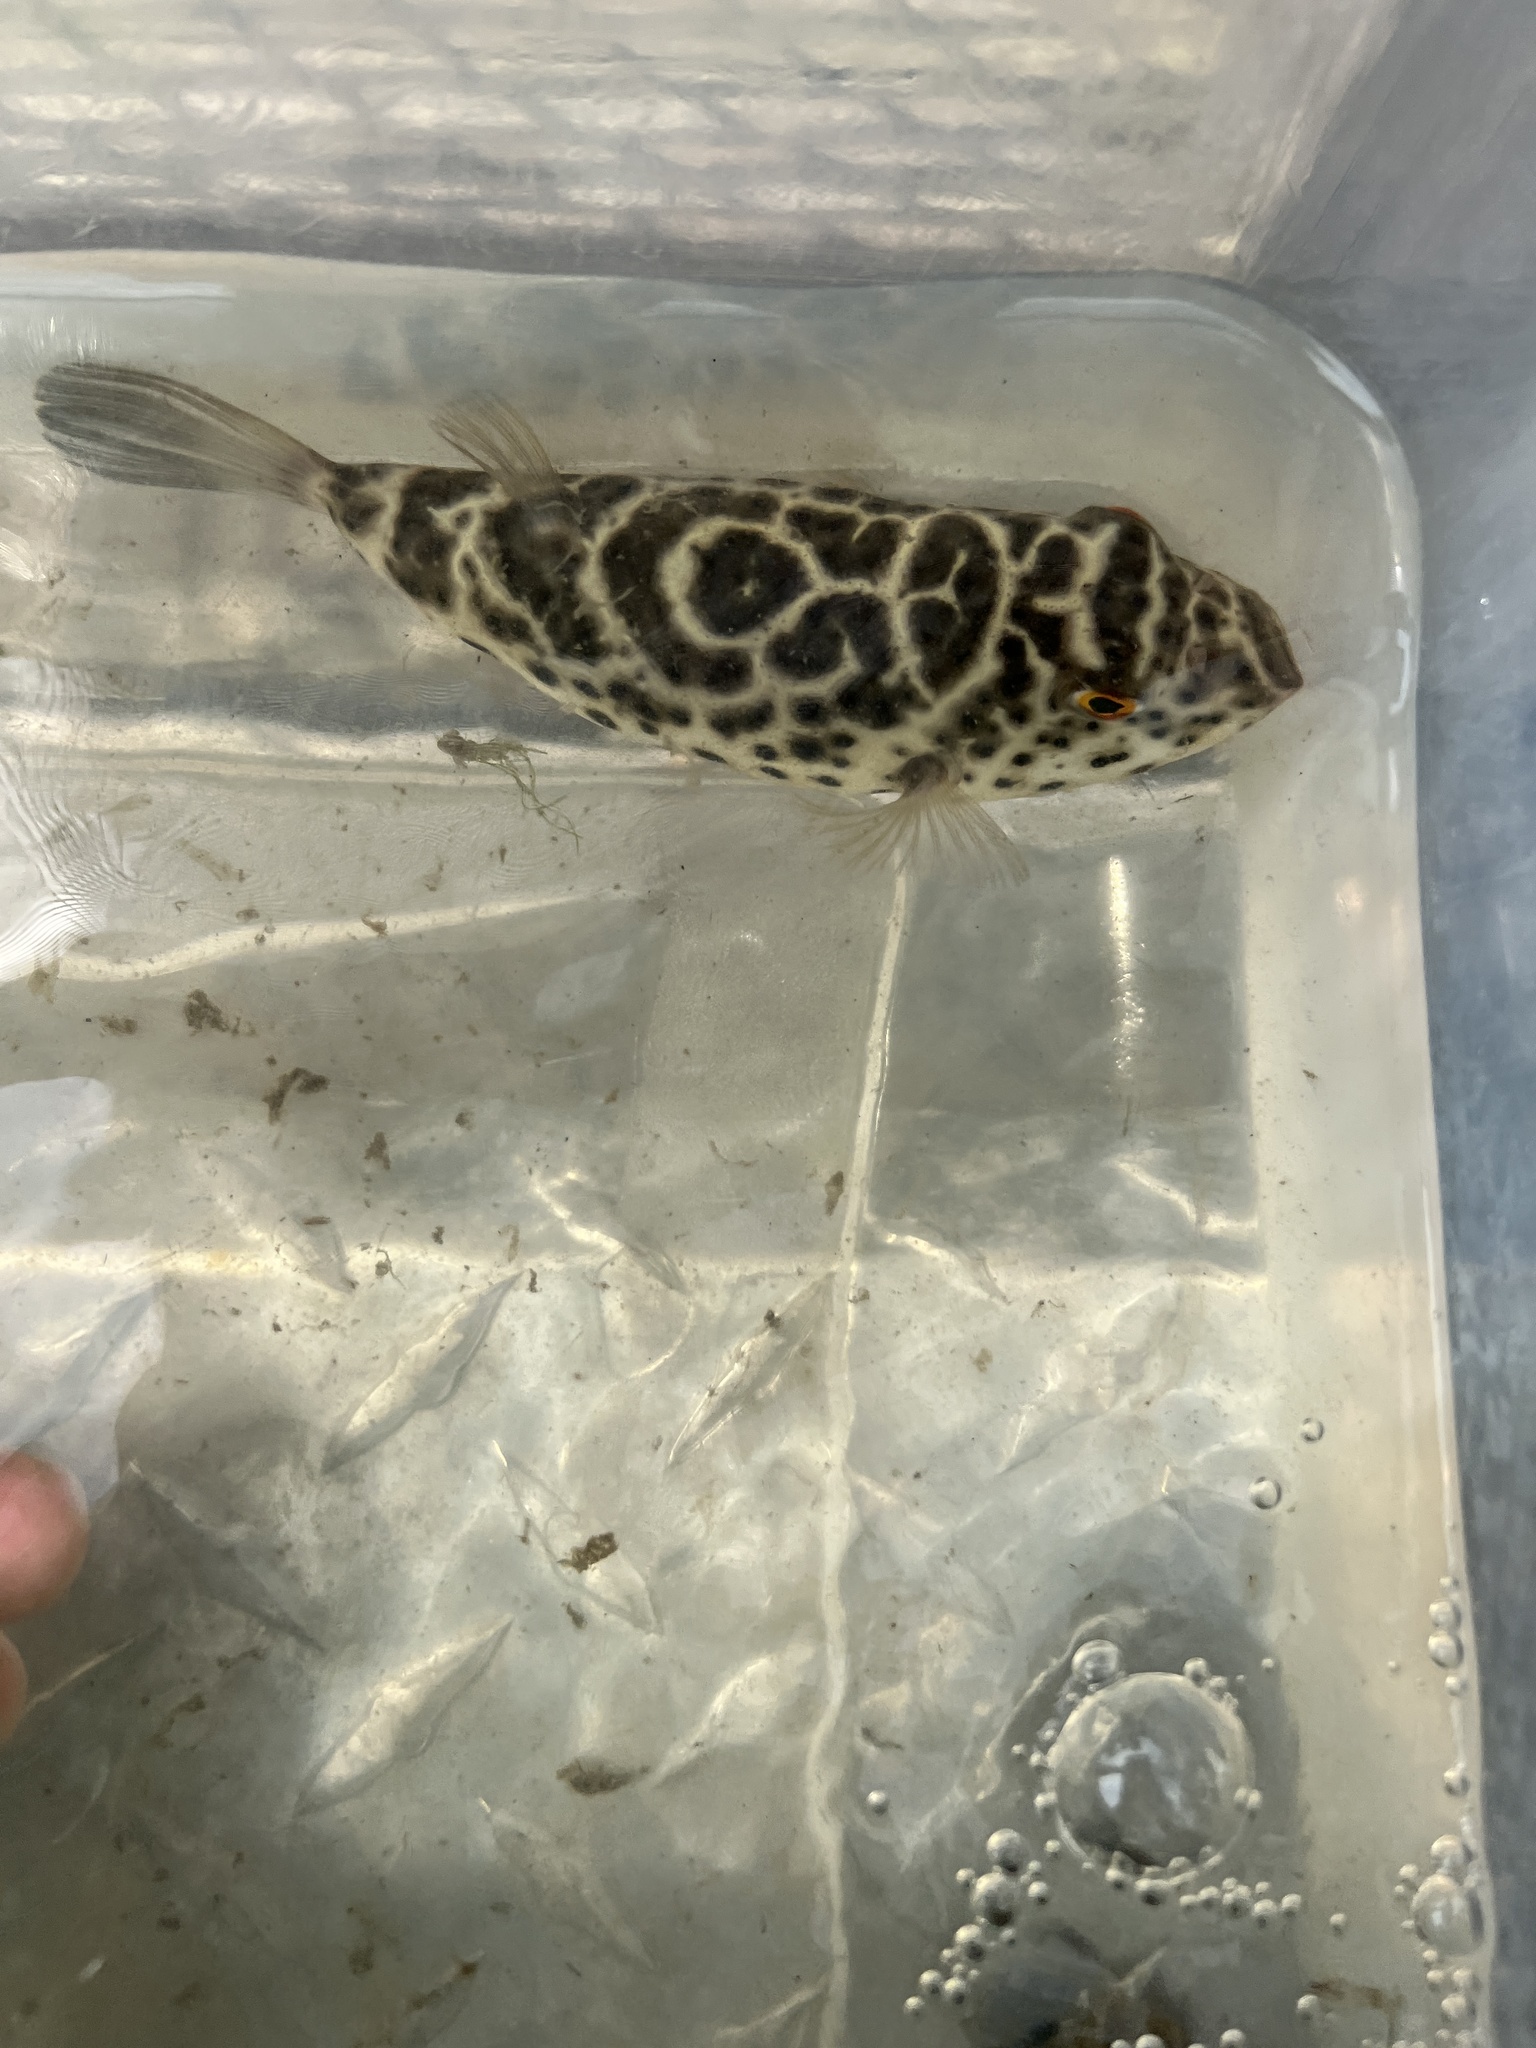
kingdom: Animalia
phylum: Chordata
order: Tetraodontiformes
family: Tetraodontidae
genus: Sphoeroides
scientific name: Sphoeroides testudineus
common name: Checkered puffer
